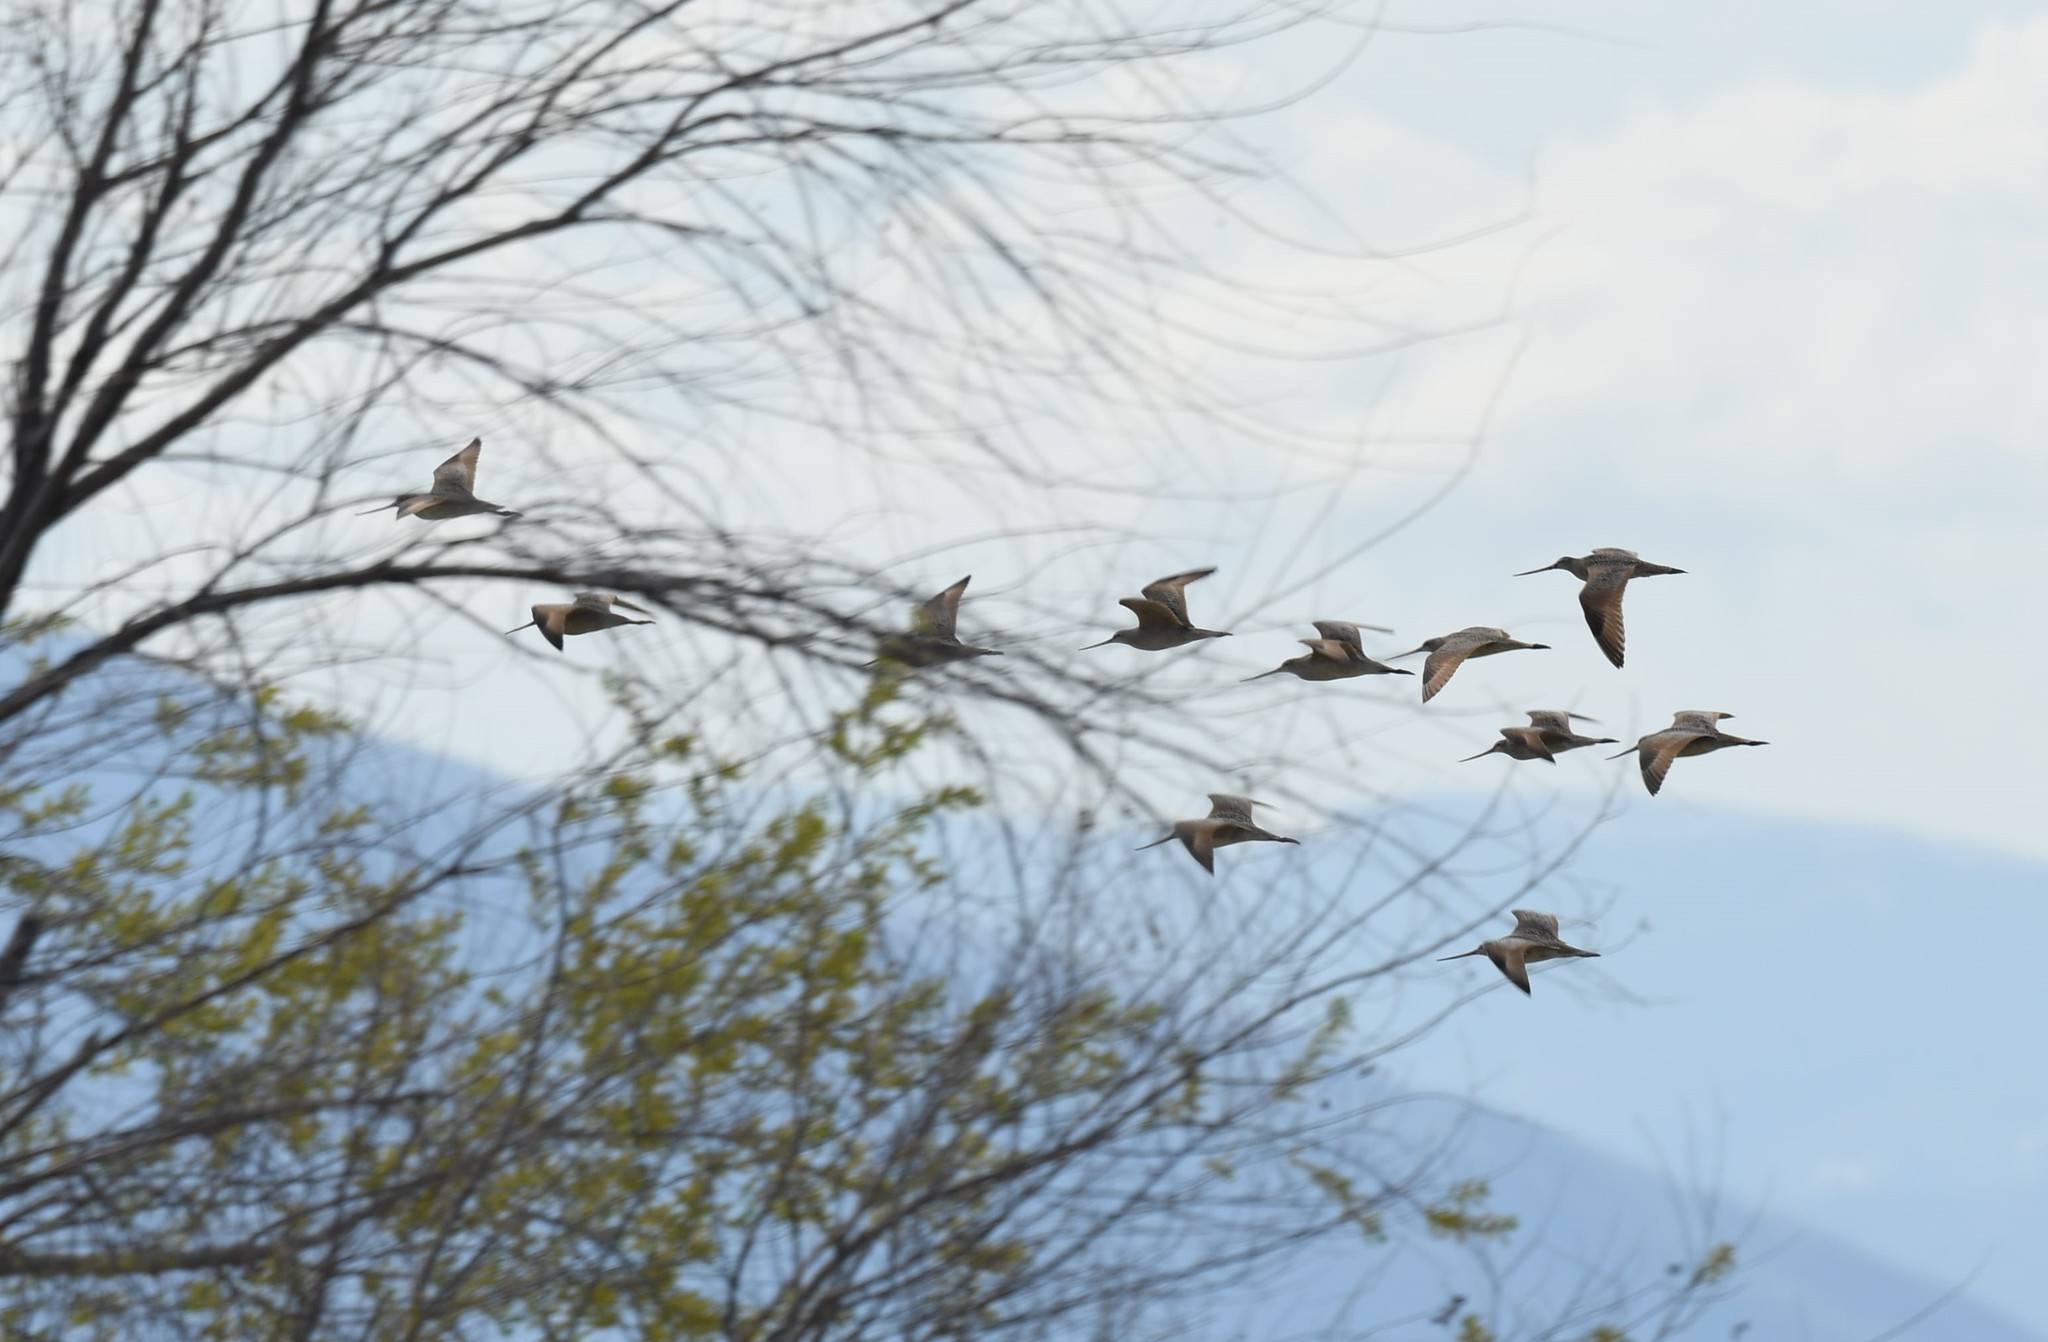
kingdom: Animalia
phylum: Chordata
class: Aves
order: Charadriiformes
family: Scolopacidae
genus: Limosa
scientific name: Limosa fedoa
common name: Marbled godwit
